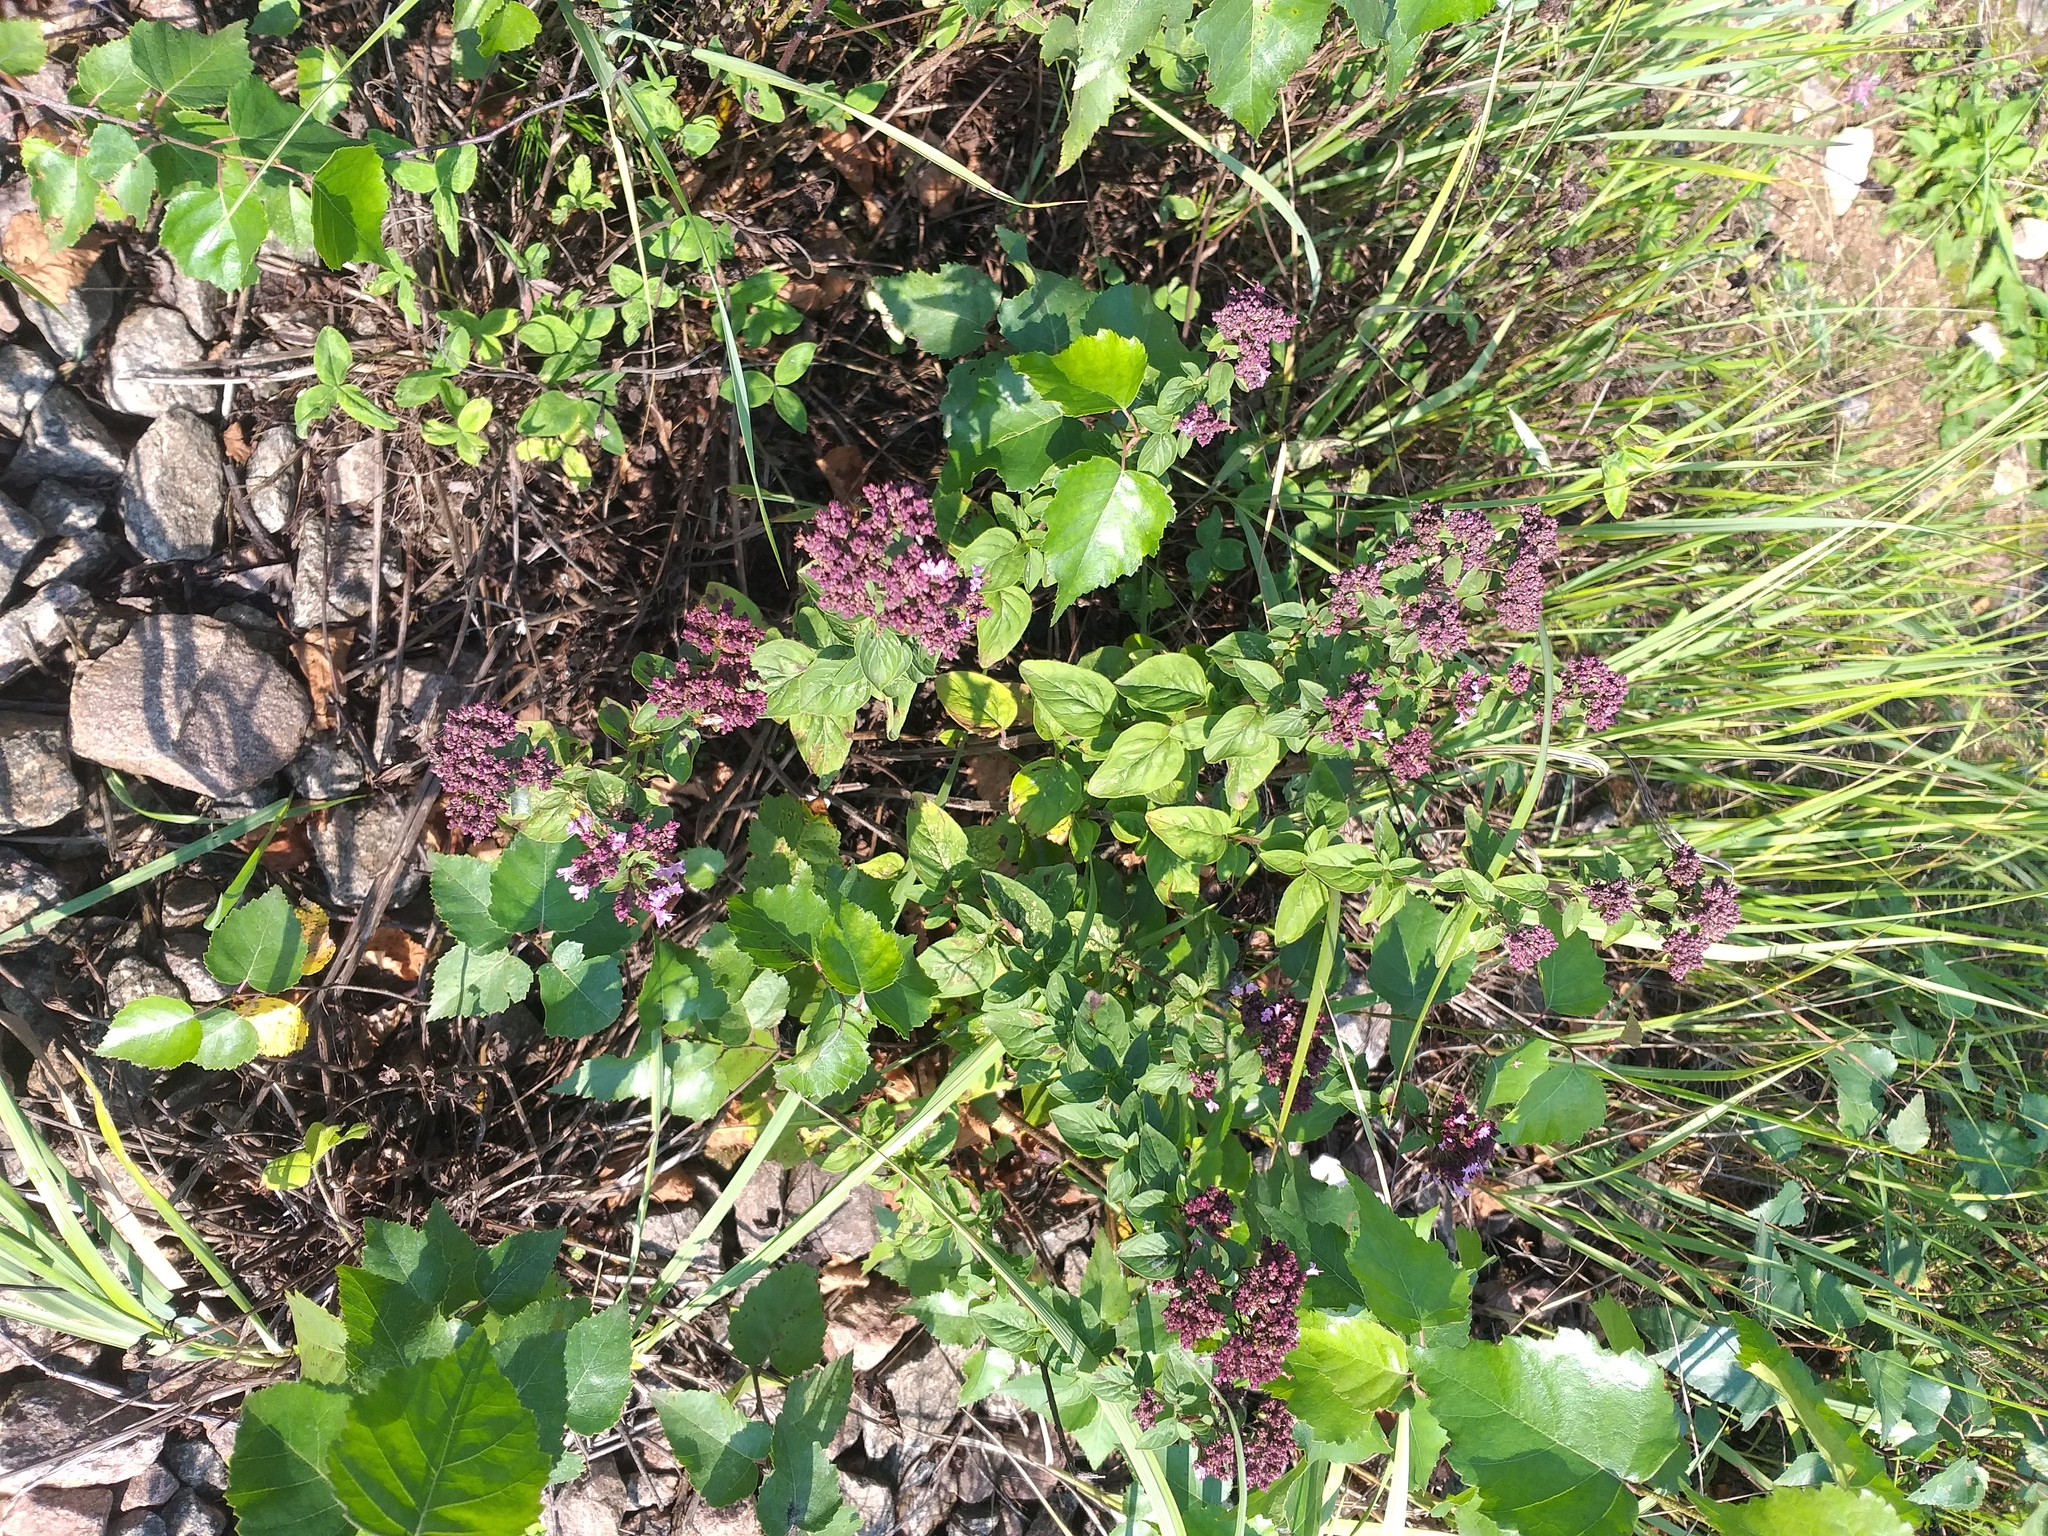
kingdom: Plantae
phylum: Tracheophyta
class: Magnoliopsida
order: Lamiales
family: Lamiaceae
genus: Origanum
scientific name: Origanum vulgare
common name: Wild marjoram
